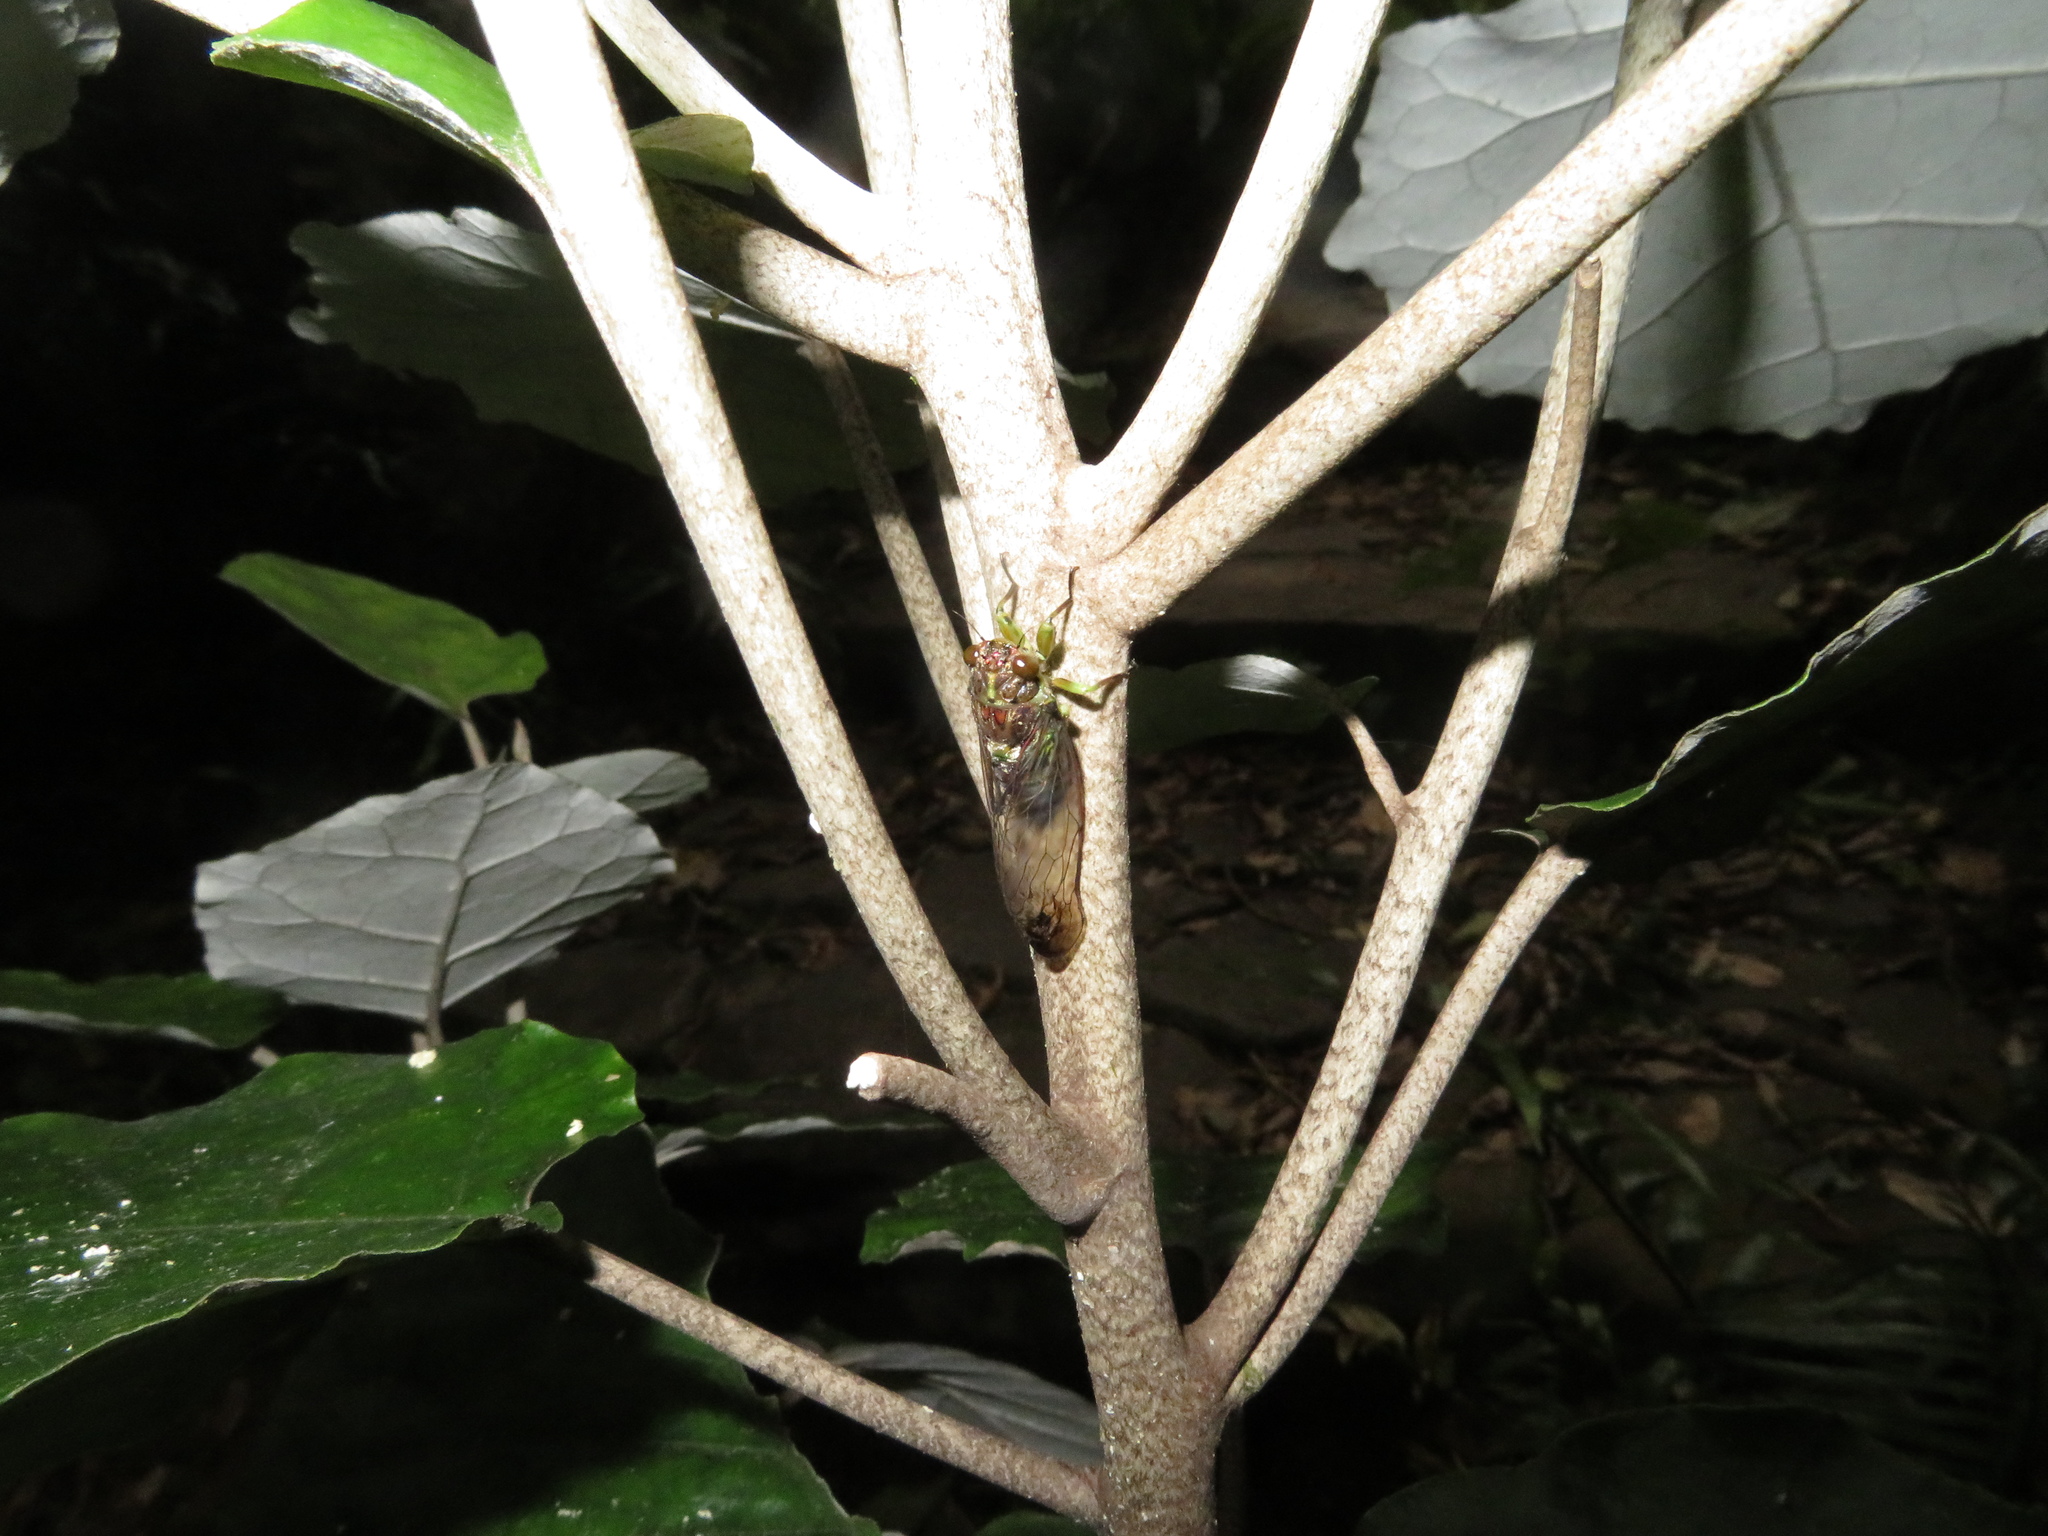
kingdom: Animalia
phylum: Arthropoda
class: Insecta
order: Hemiptera
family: Cicadidae
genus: Kikihia
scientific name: Kikihia scutellaris
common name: Lesser bronze cicada
